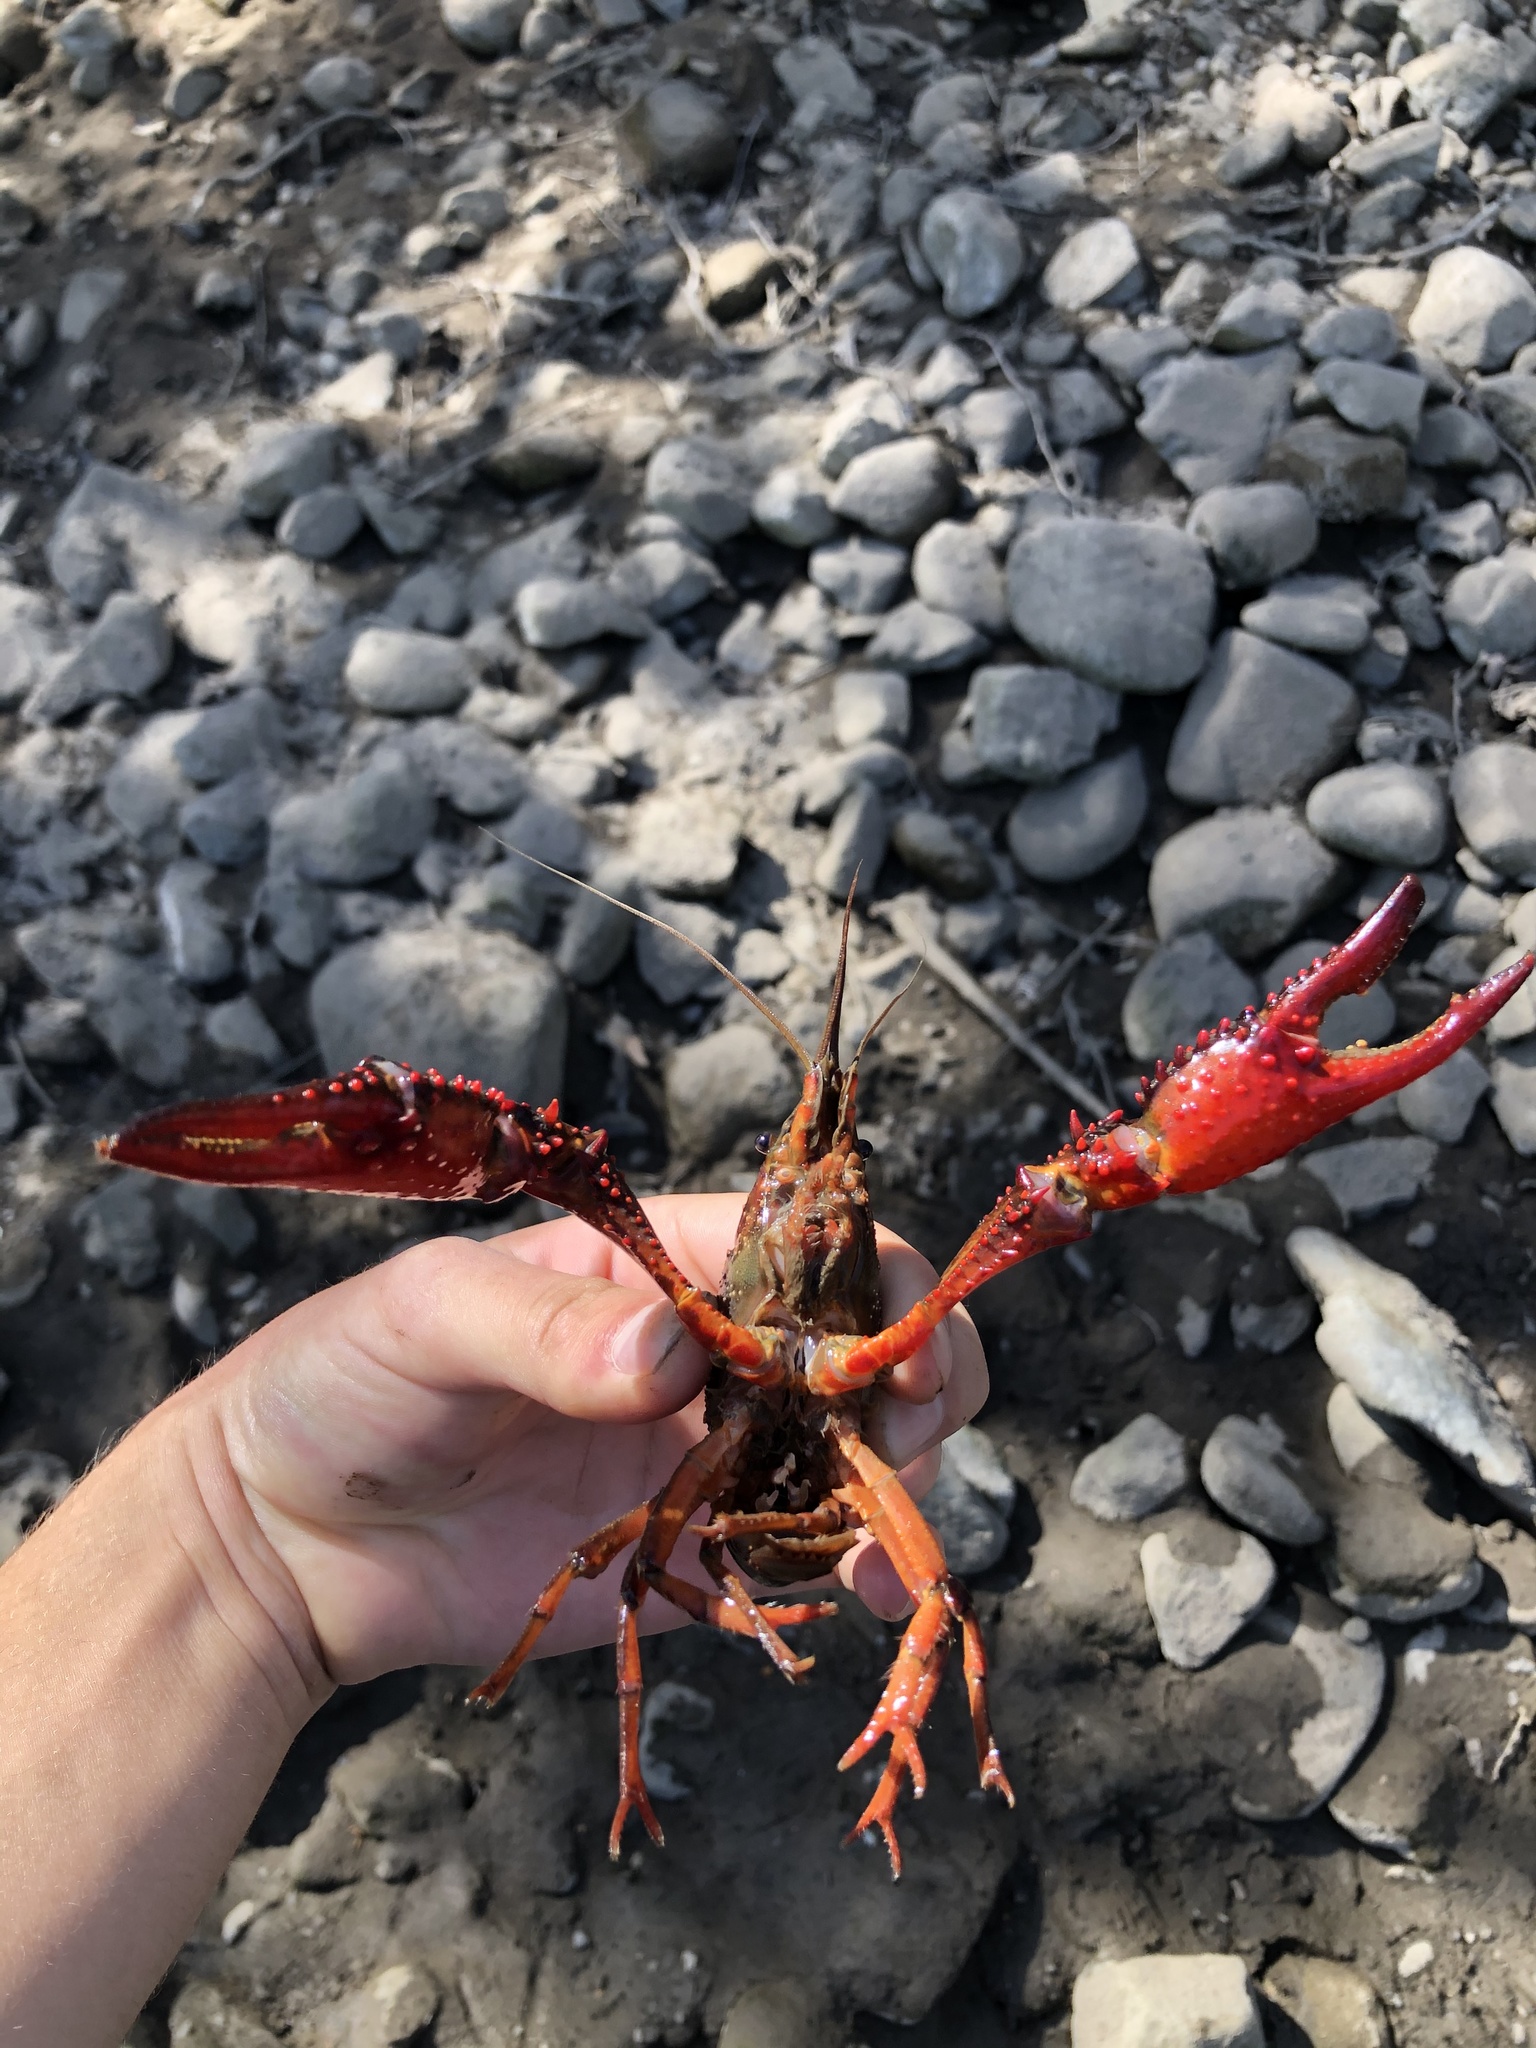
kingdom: Animalia
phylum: Arthropoda
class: Malacostraca
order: Decapoda
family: Cambaridae
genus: Procambarus
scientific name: Procambarus clarkii
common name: Red swamp crayfish
